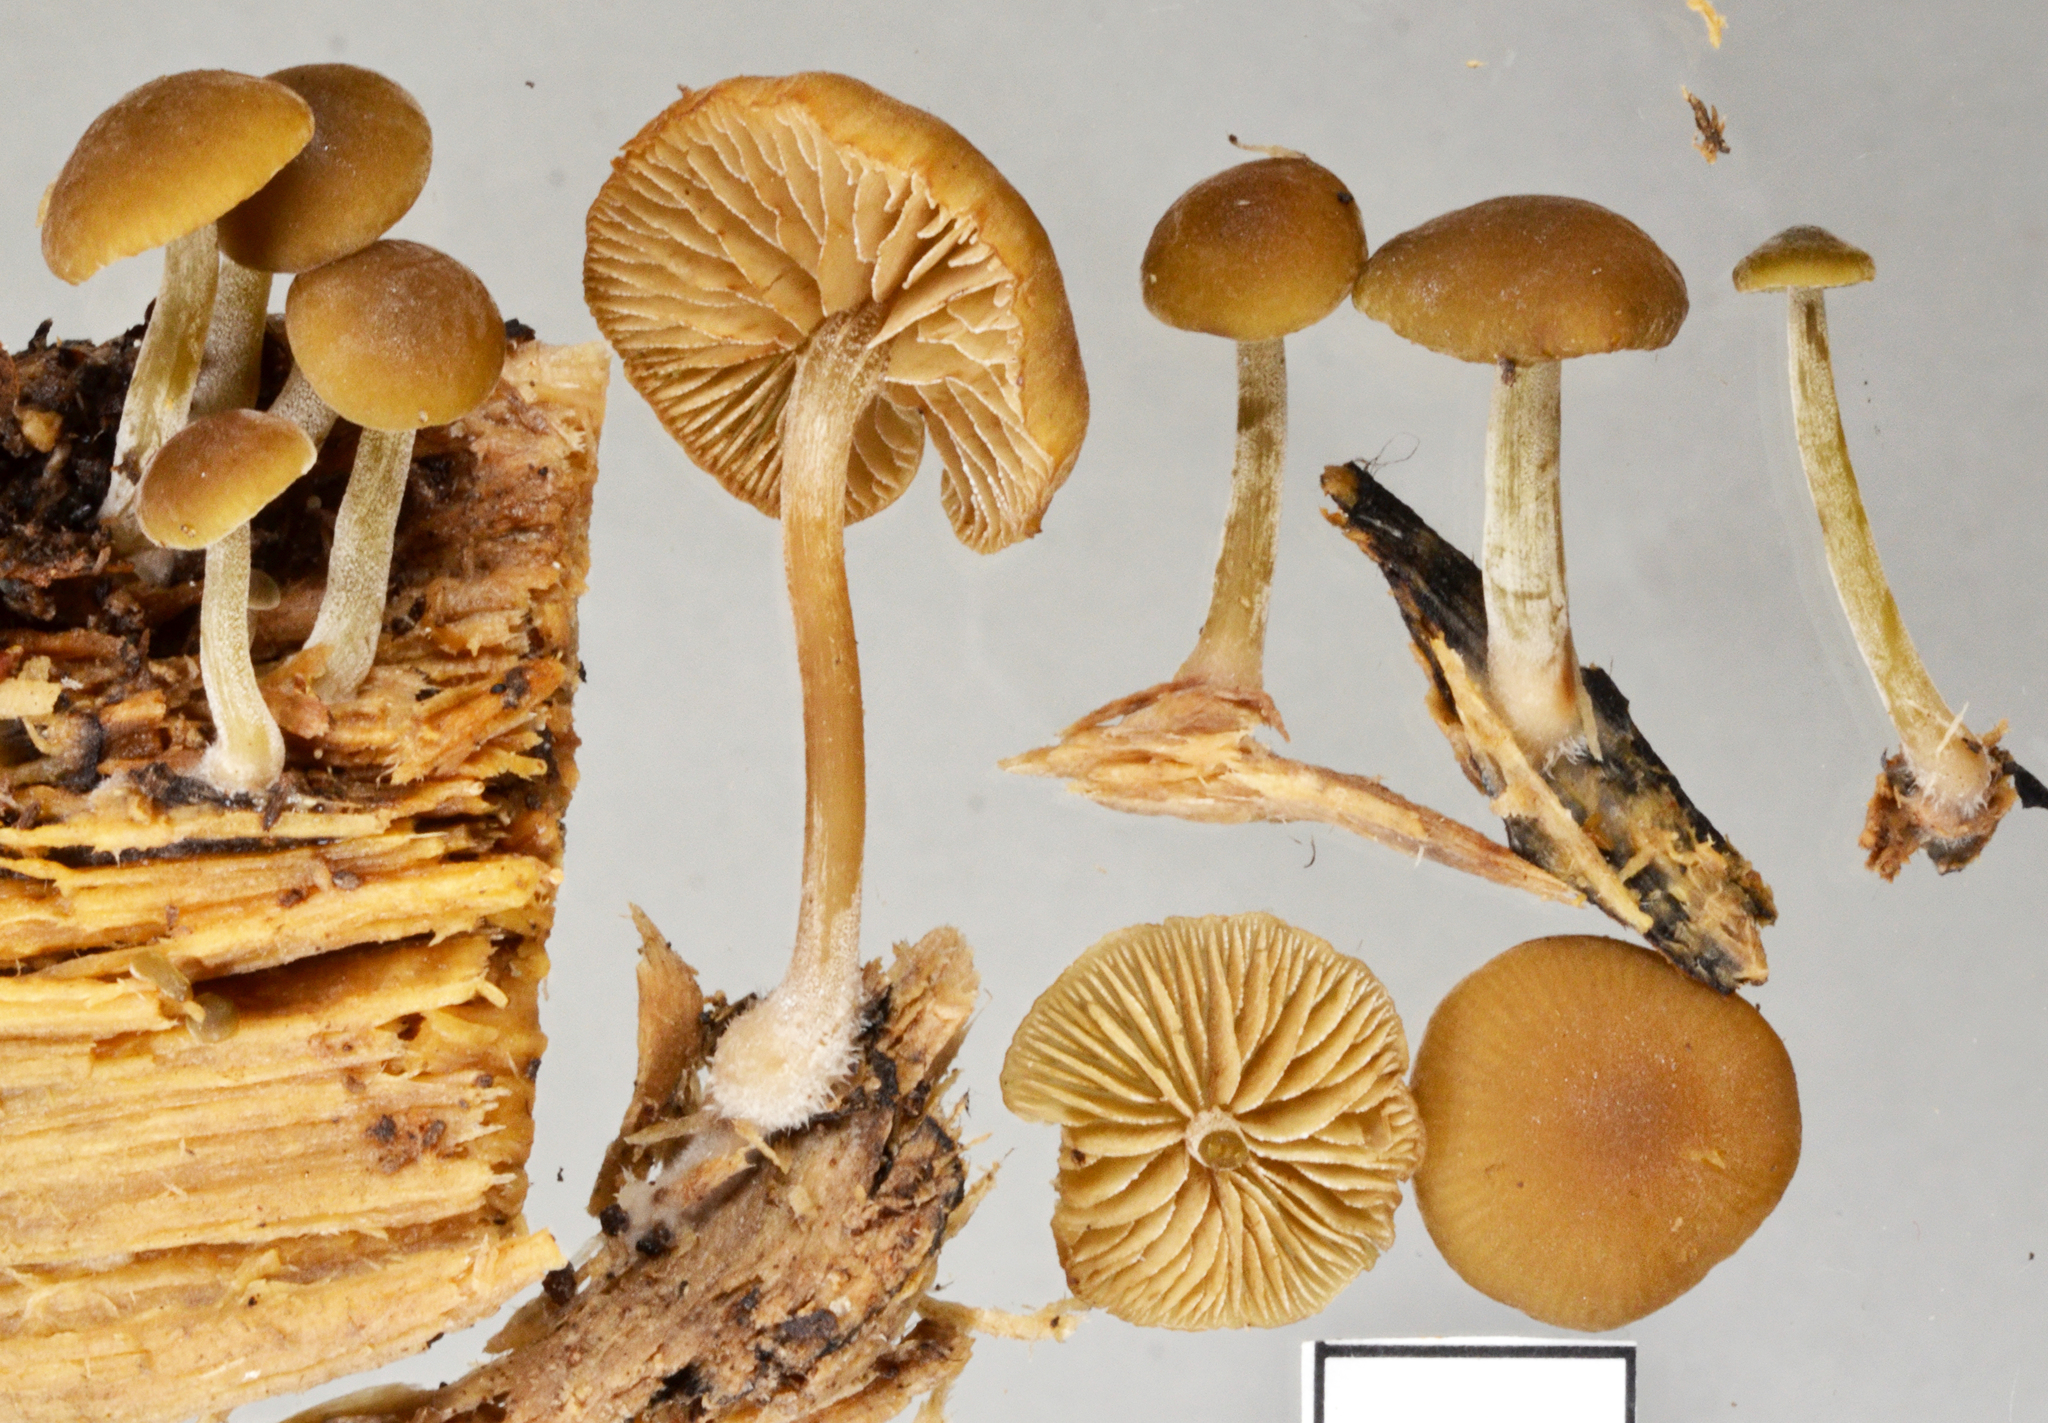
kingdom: Fungi
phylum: Basidiomycota
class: Agaricomycetes
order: Agaricales
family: Crepidotaceae
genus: Simocybe
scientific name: Simocybe largispora
